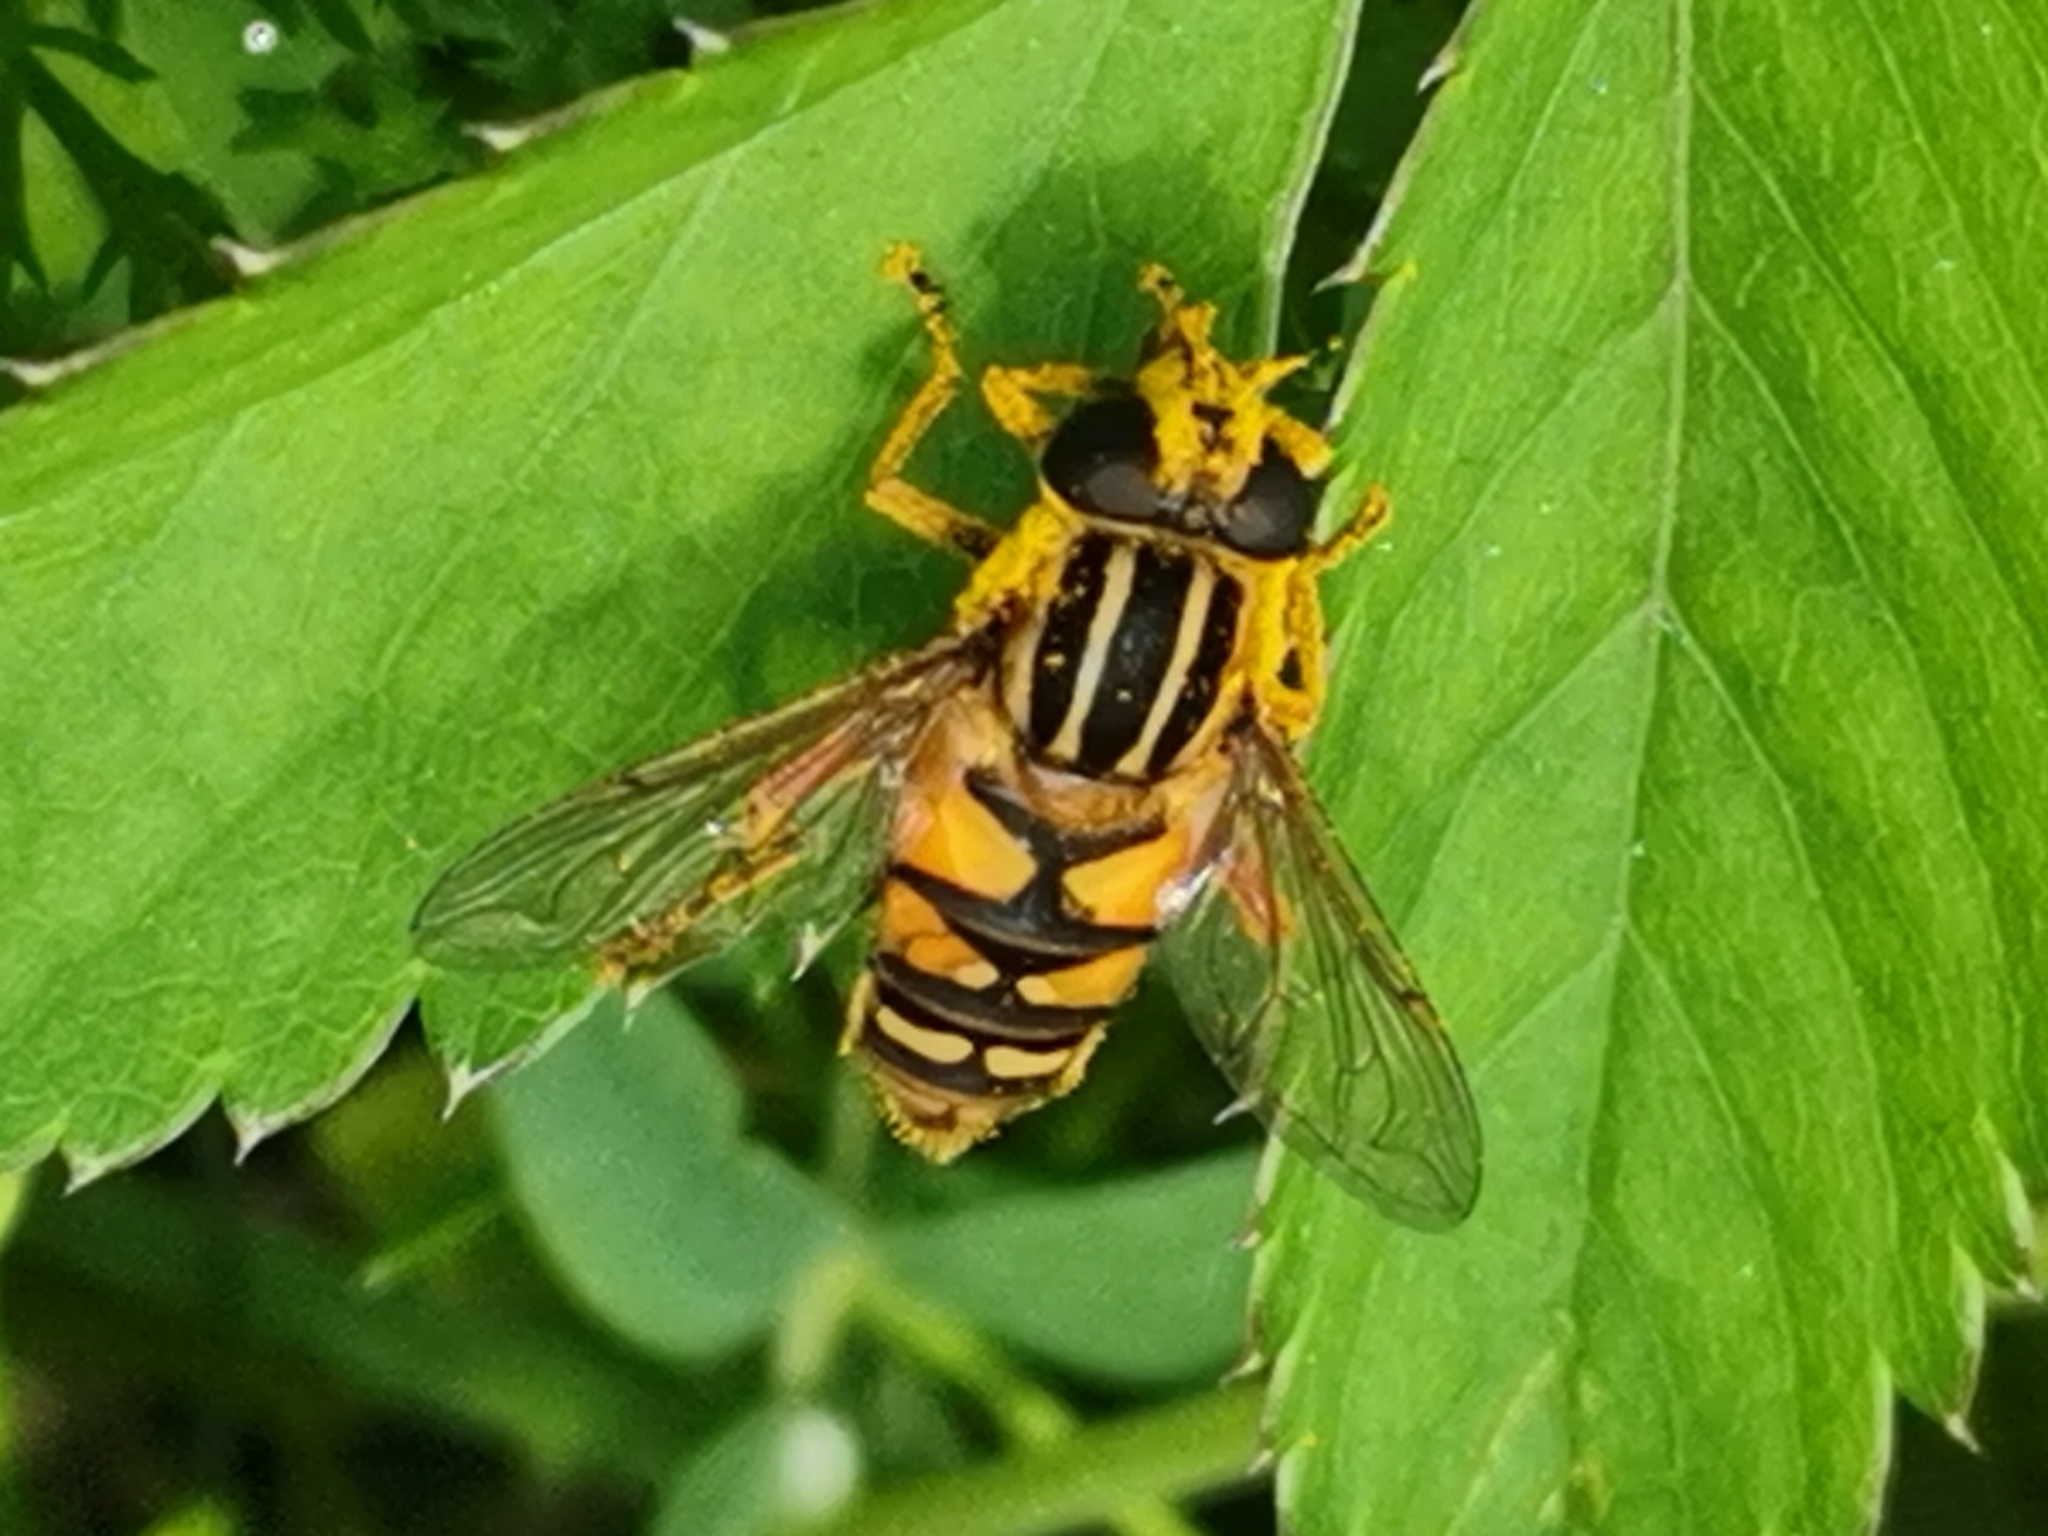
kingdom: Animalia
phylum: Arthropoda
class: Insecta
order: Diptera
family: Syrphidae
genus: Helophilus
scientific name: Helophilus pendulus
